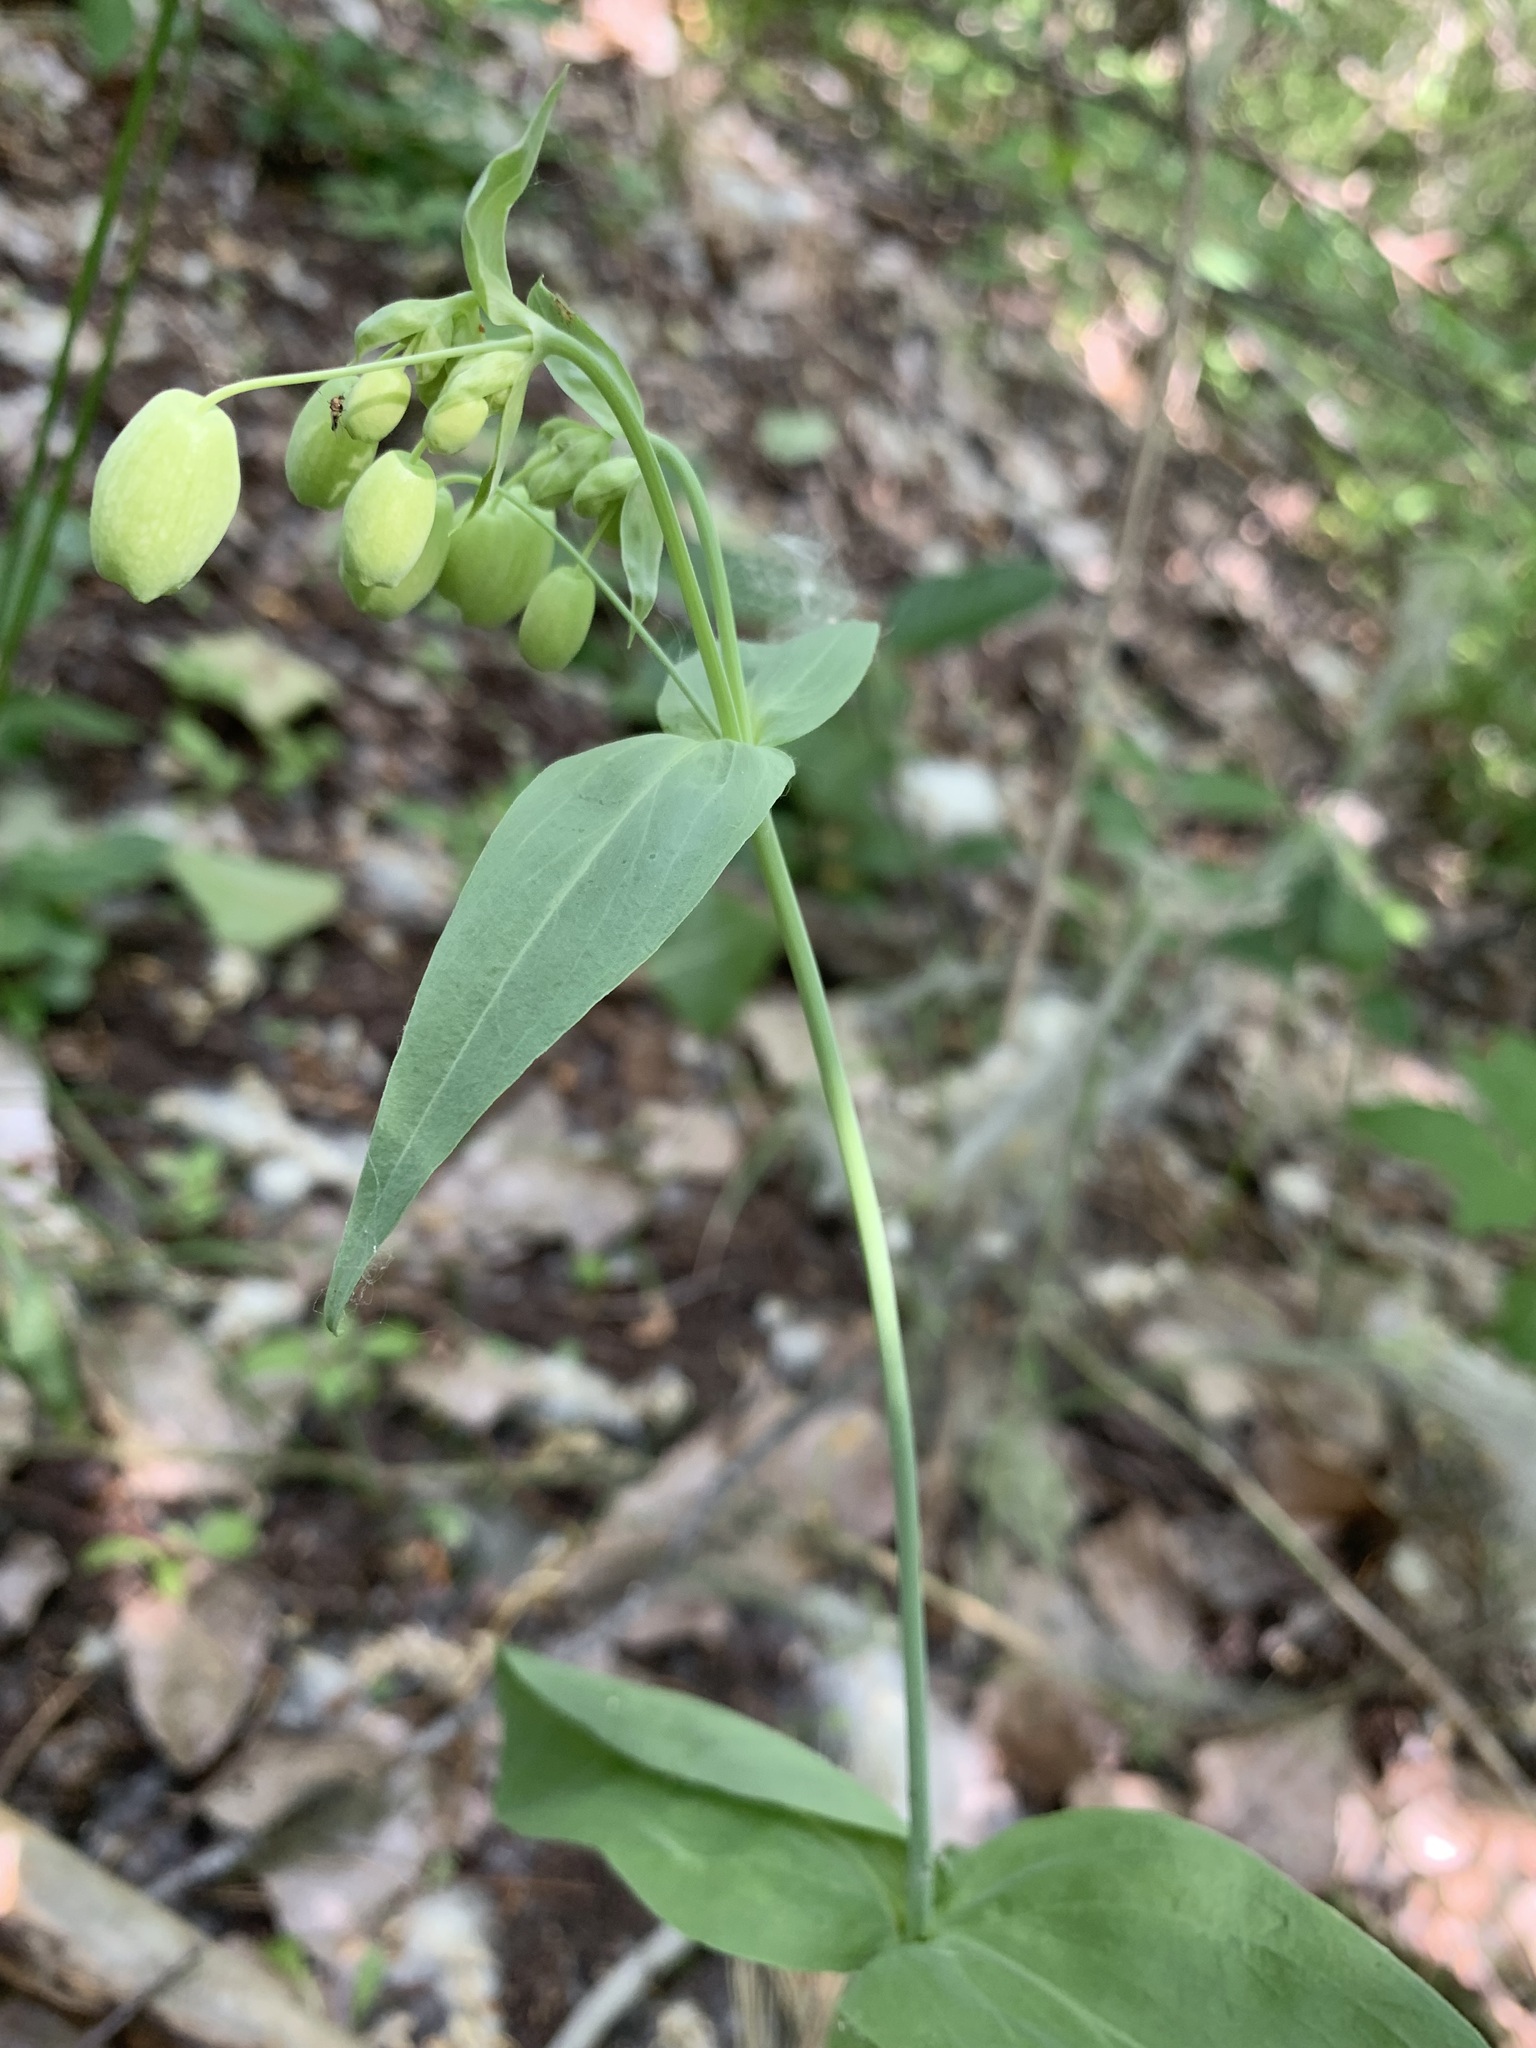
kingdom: Plantae
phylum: Tracheophyta
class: Magnoliopsida
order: Caryophyllales
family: Caryophyllaceae
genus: Silene
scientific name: Silene vulgaris
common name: Bladder campion
